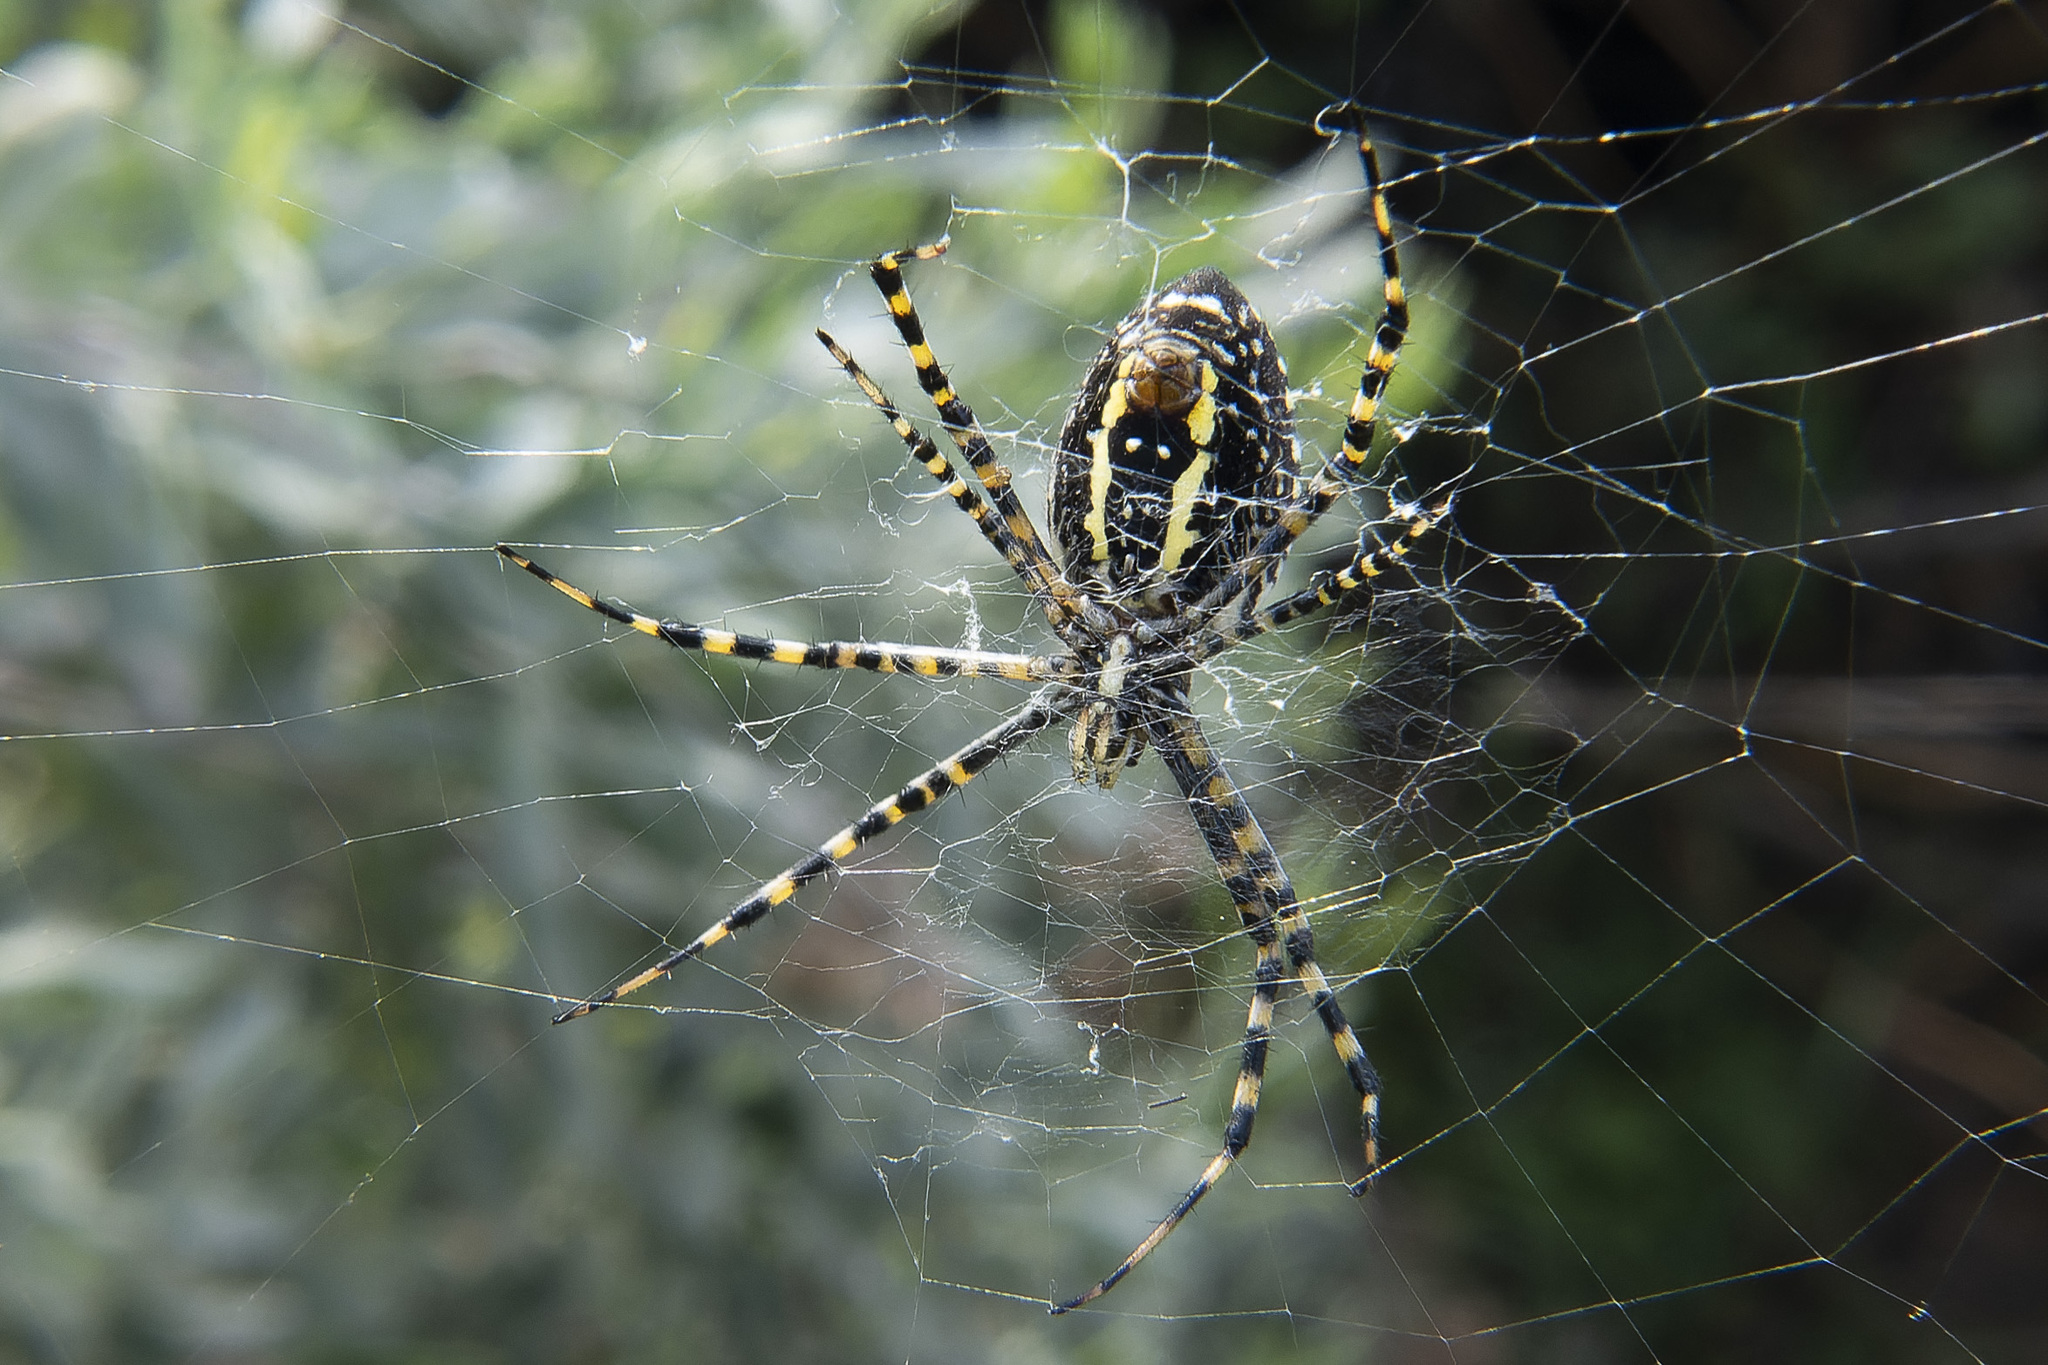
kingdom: Animalia
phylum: Arthropoda
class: Arachnida
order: Araneae
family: Araneidae
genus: Argiope
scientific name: Argiope trifasciata
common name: Banded garden spider
